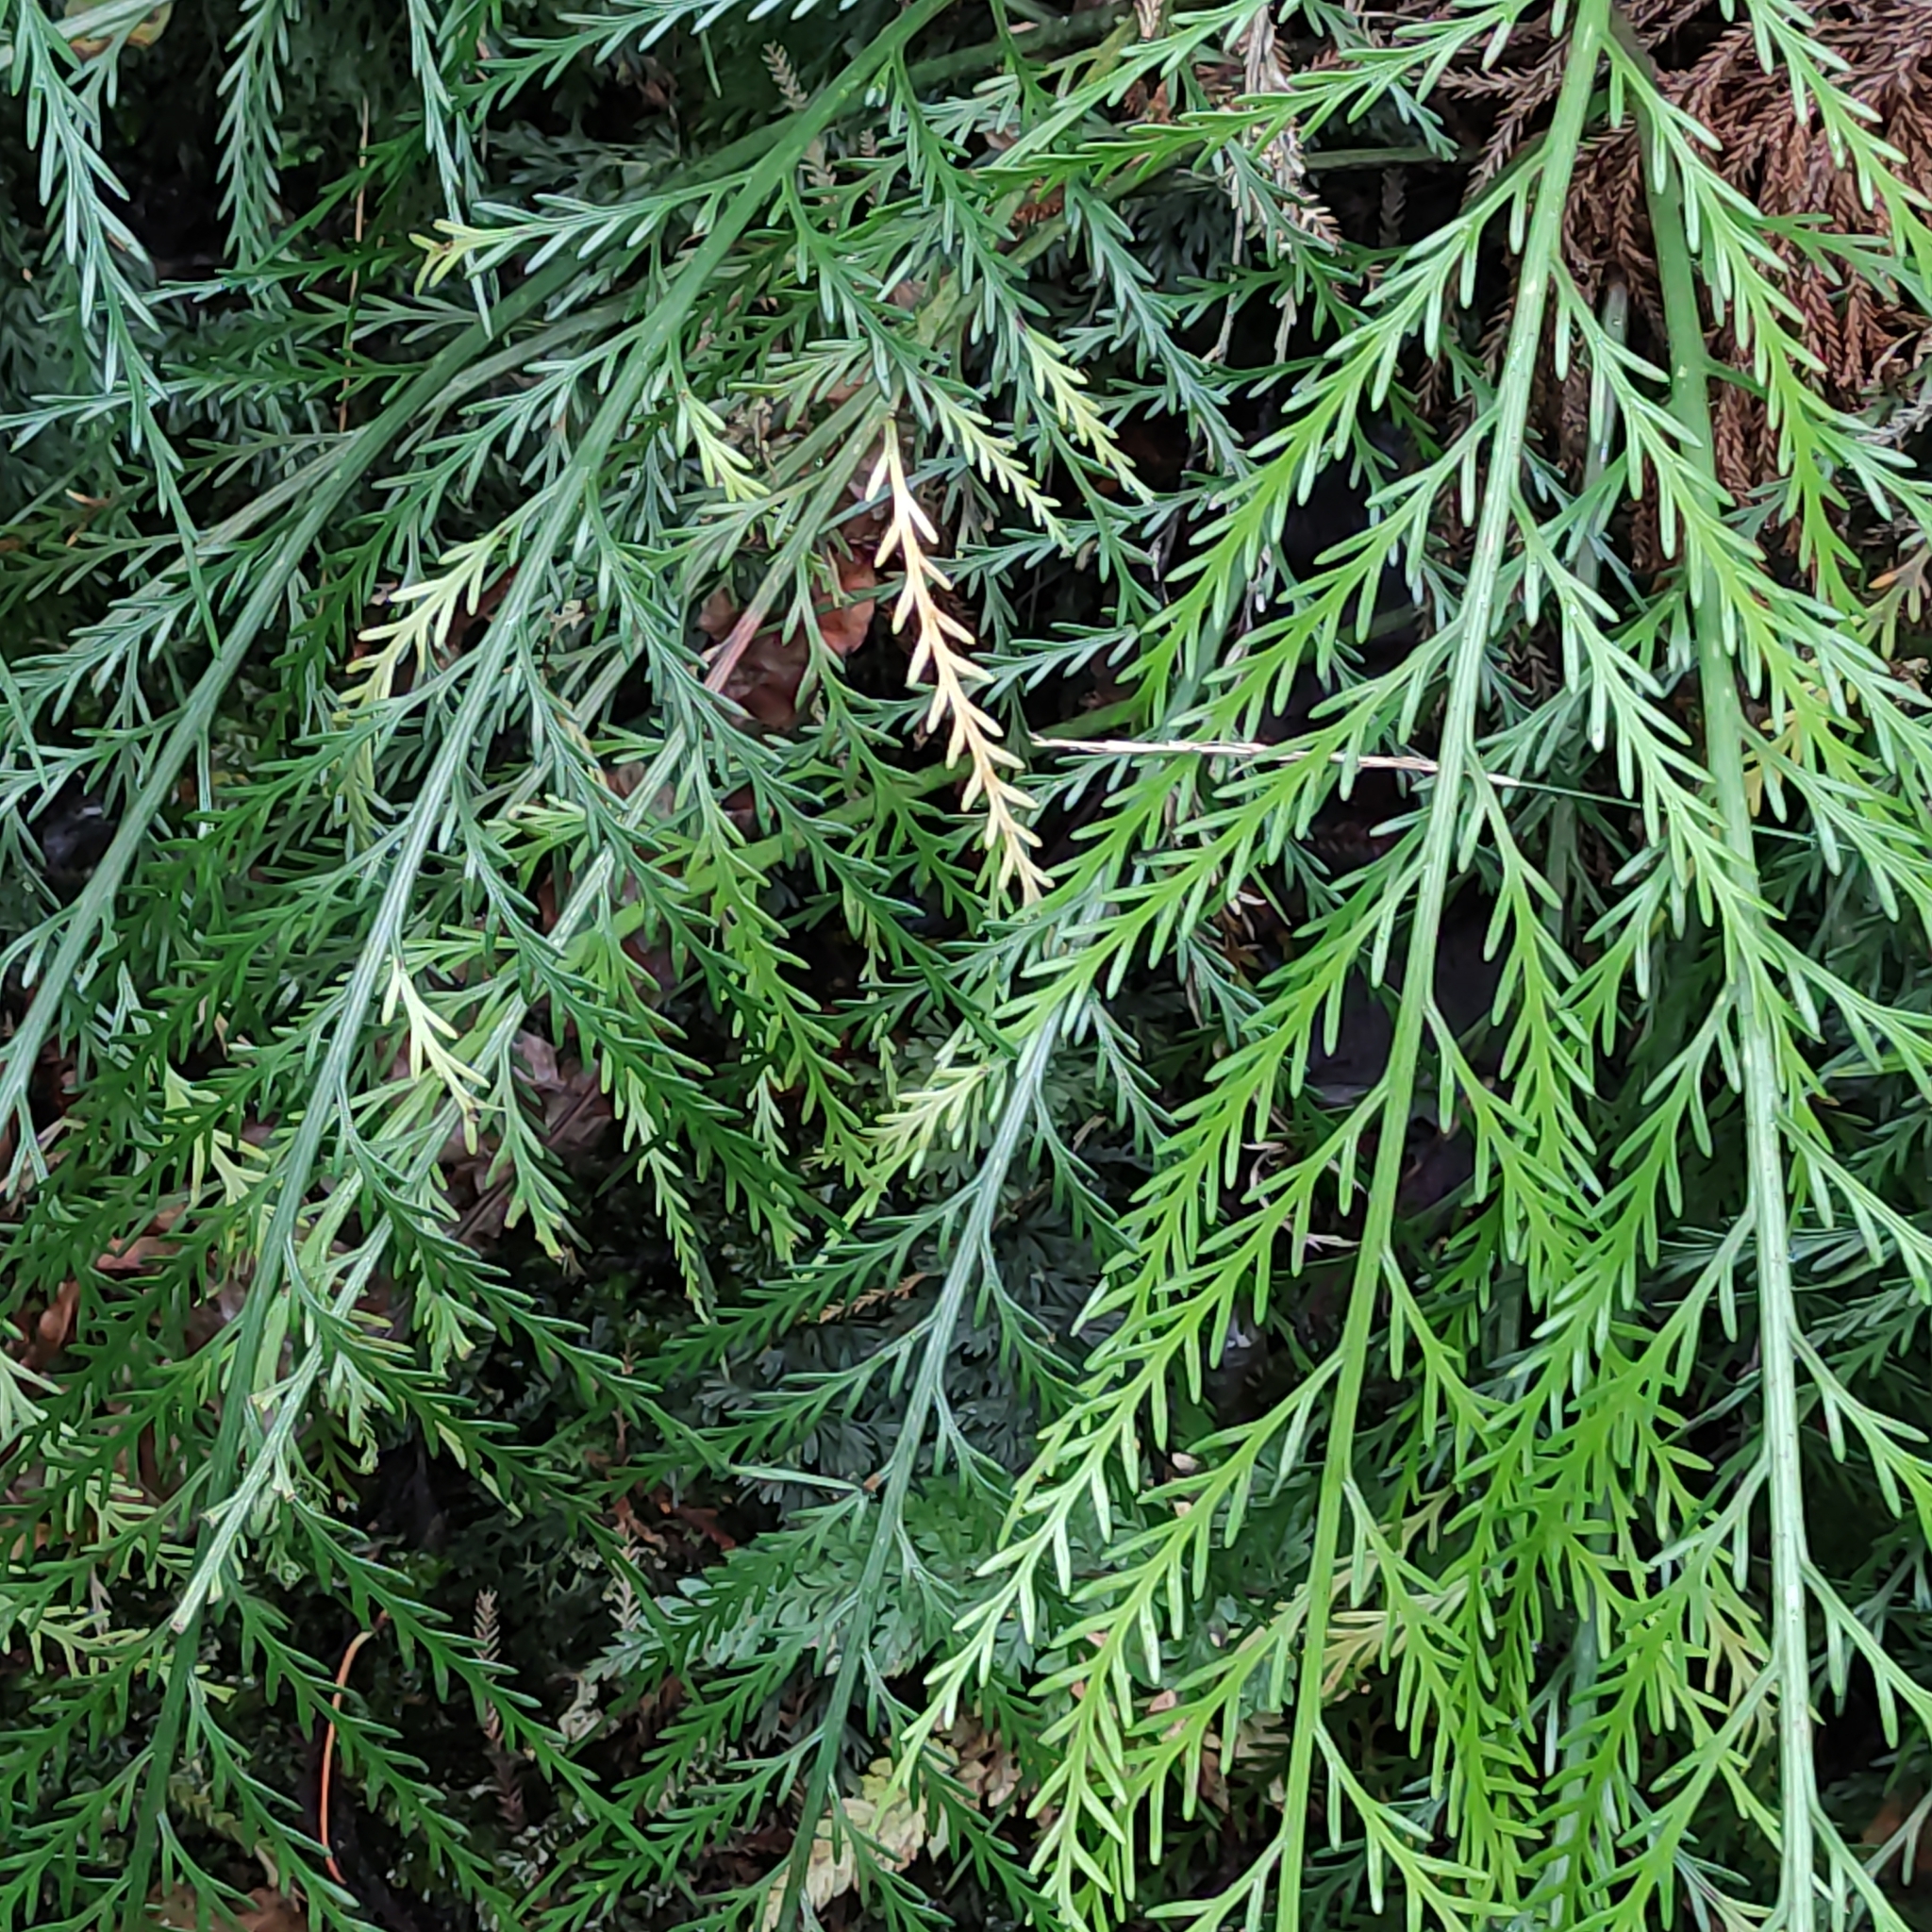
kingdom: Plantae
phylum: Tracheophyta
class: Polypodiopsida
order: Polypodiales
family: Aspleniaceae
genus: Asplenium
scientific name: Asplenium flaccidum
